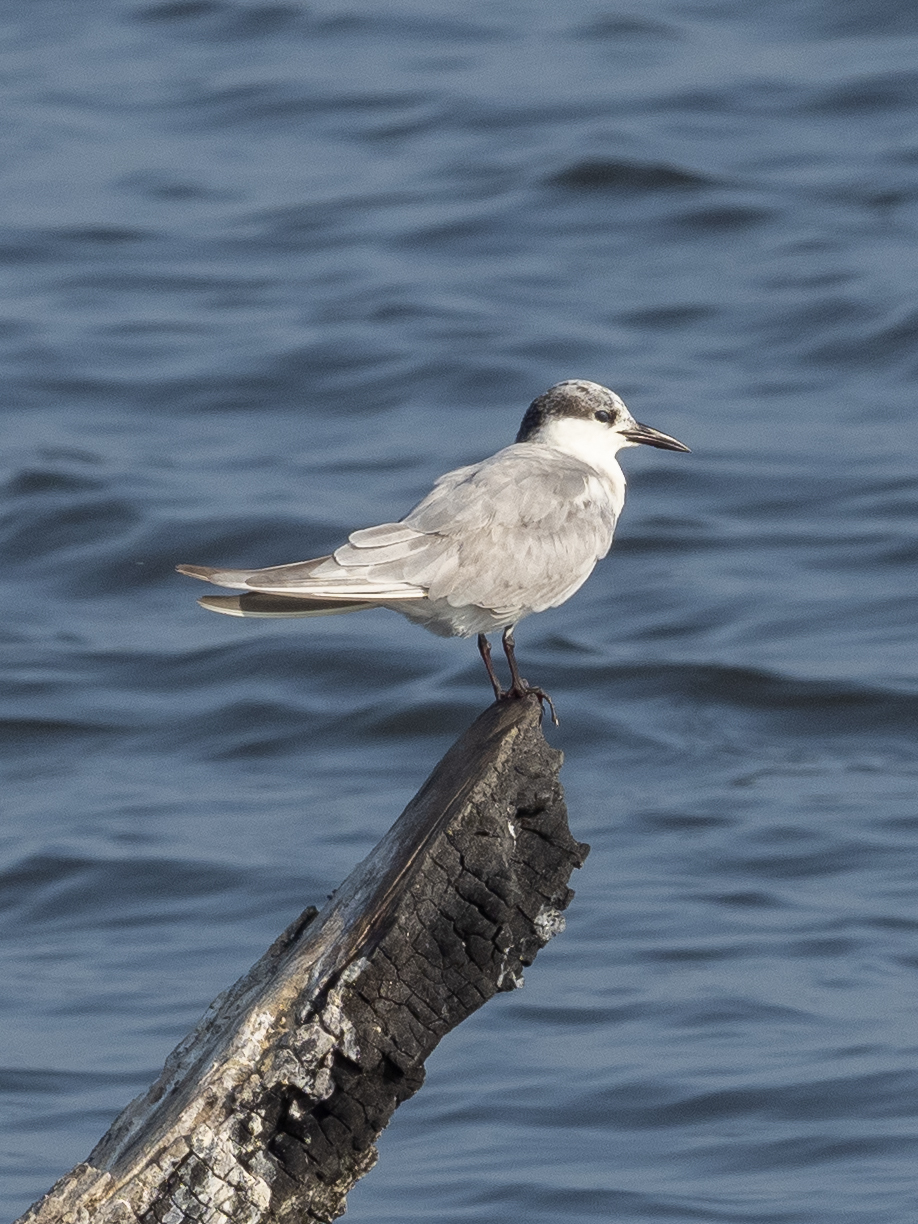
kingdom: Animalia
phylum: Chordata
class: Aves
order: Charadriiformes
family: Laridae
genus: Chlidonias
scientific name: Chlidonias hybrida
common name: Whiskered tern
